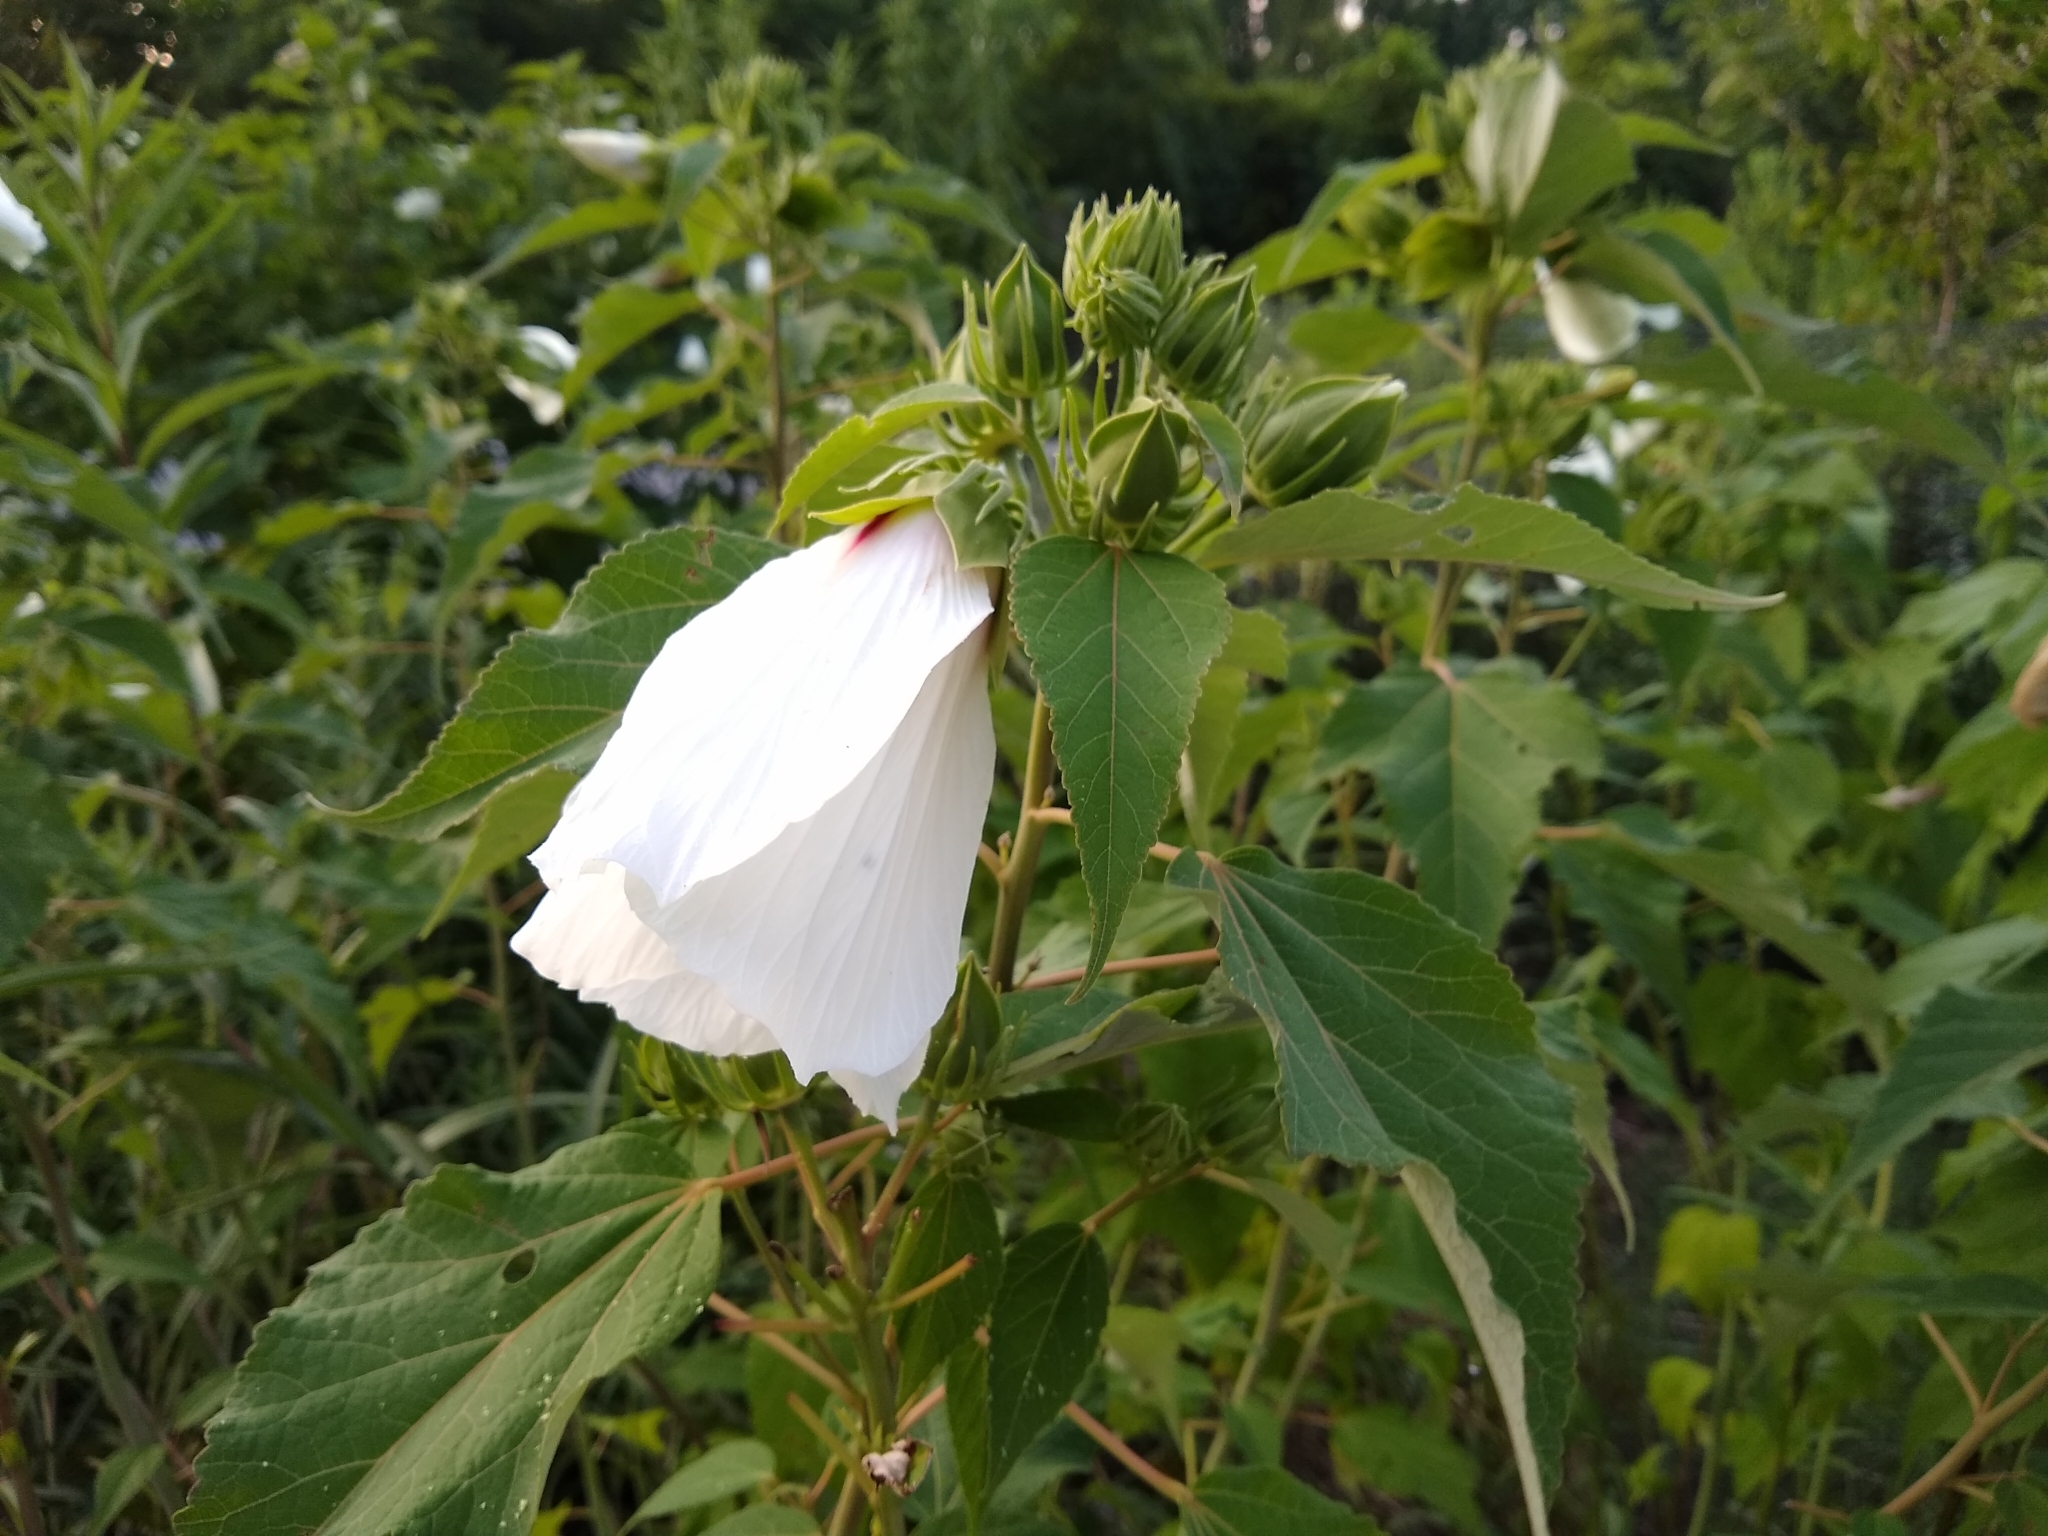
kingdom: Plantae
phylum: Tracheophyta
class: Magnoliopsida
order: Malvales
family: Malvaceae
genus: Hibiscus
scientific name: Hibiscus moscheutos
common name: Common rose-mallow
